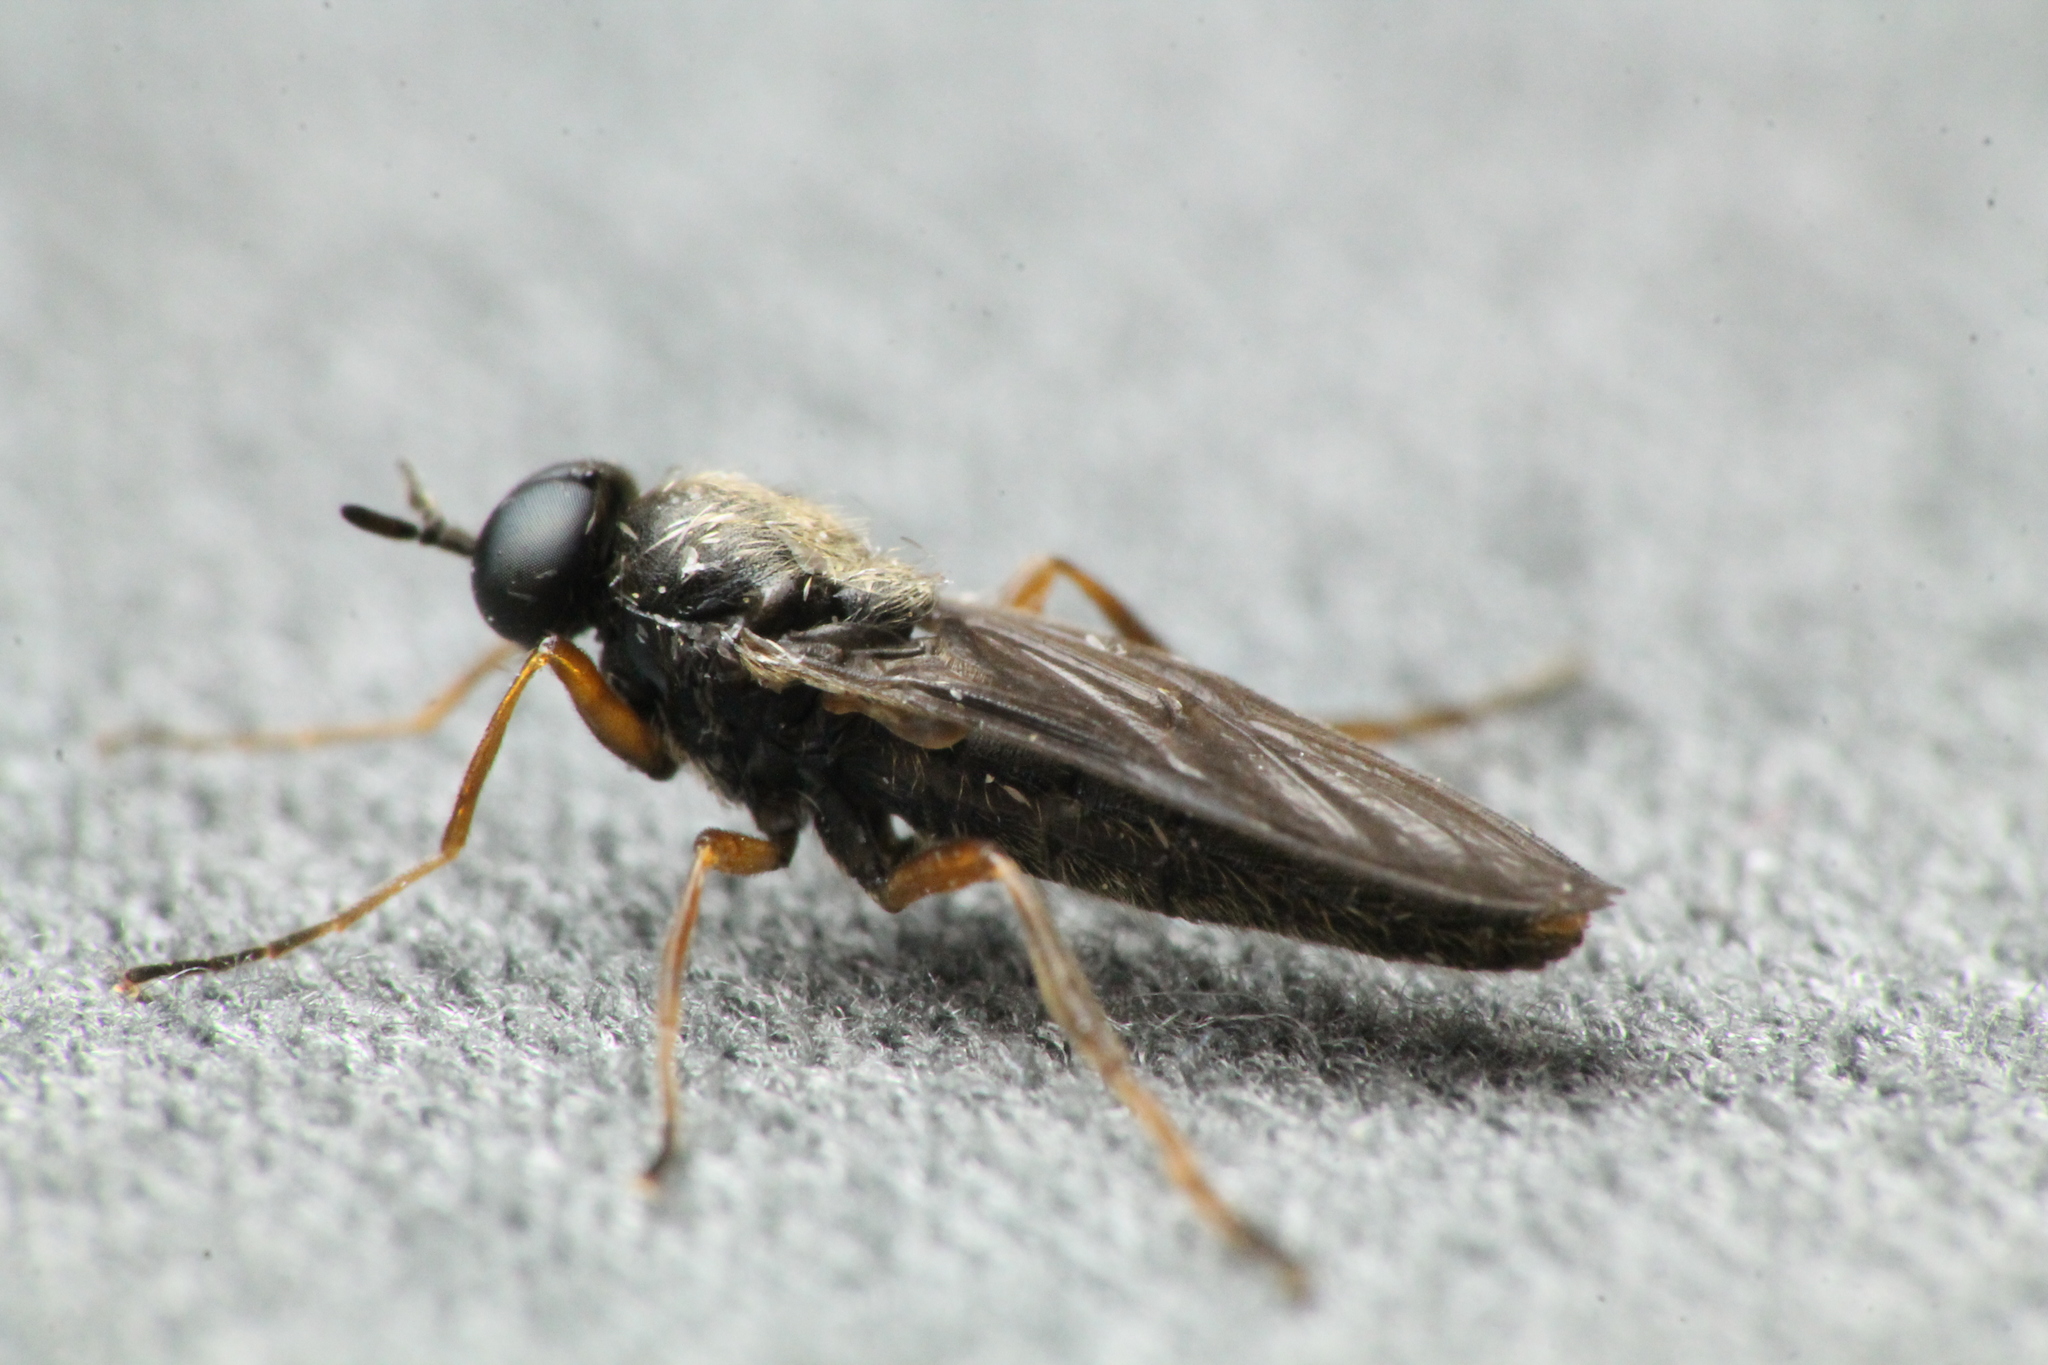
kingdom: Animalia
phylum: Arthropoda
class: Insecta
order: Diptera
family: Stratiomyidae
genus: Inopus
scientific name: Inopus rubriceps
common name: Soldier fly
